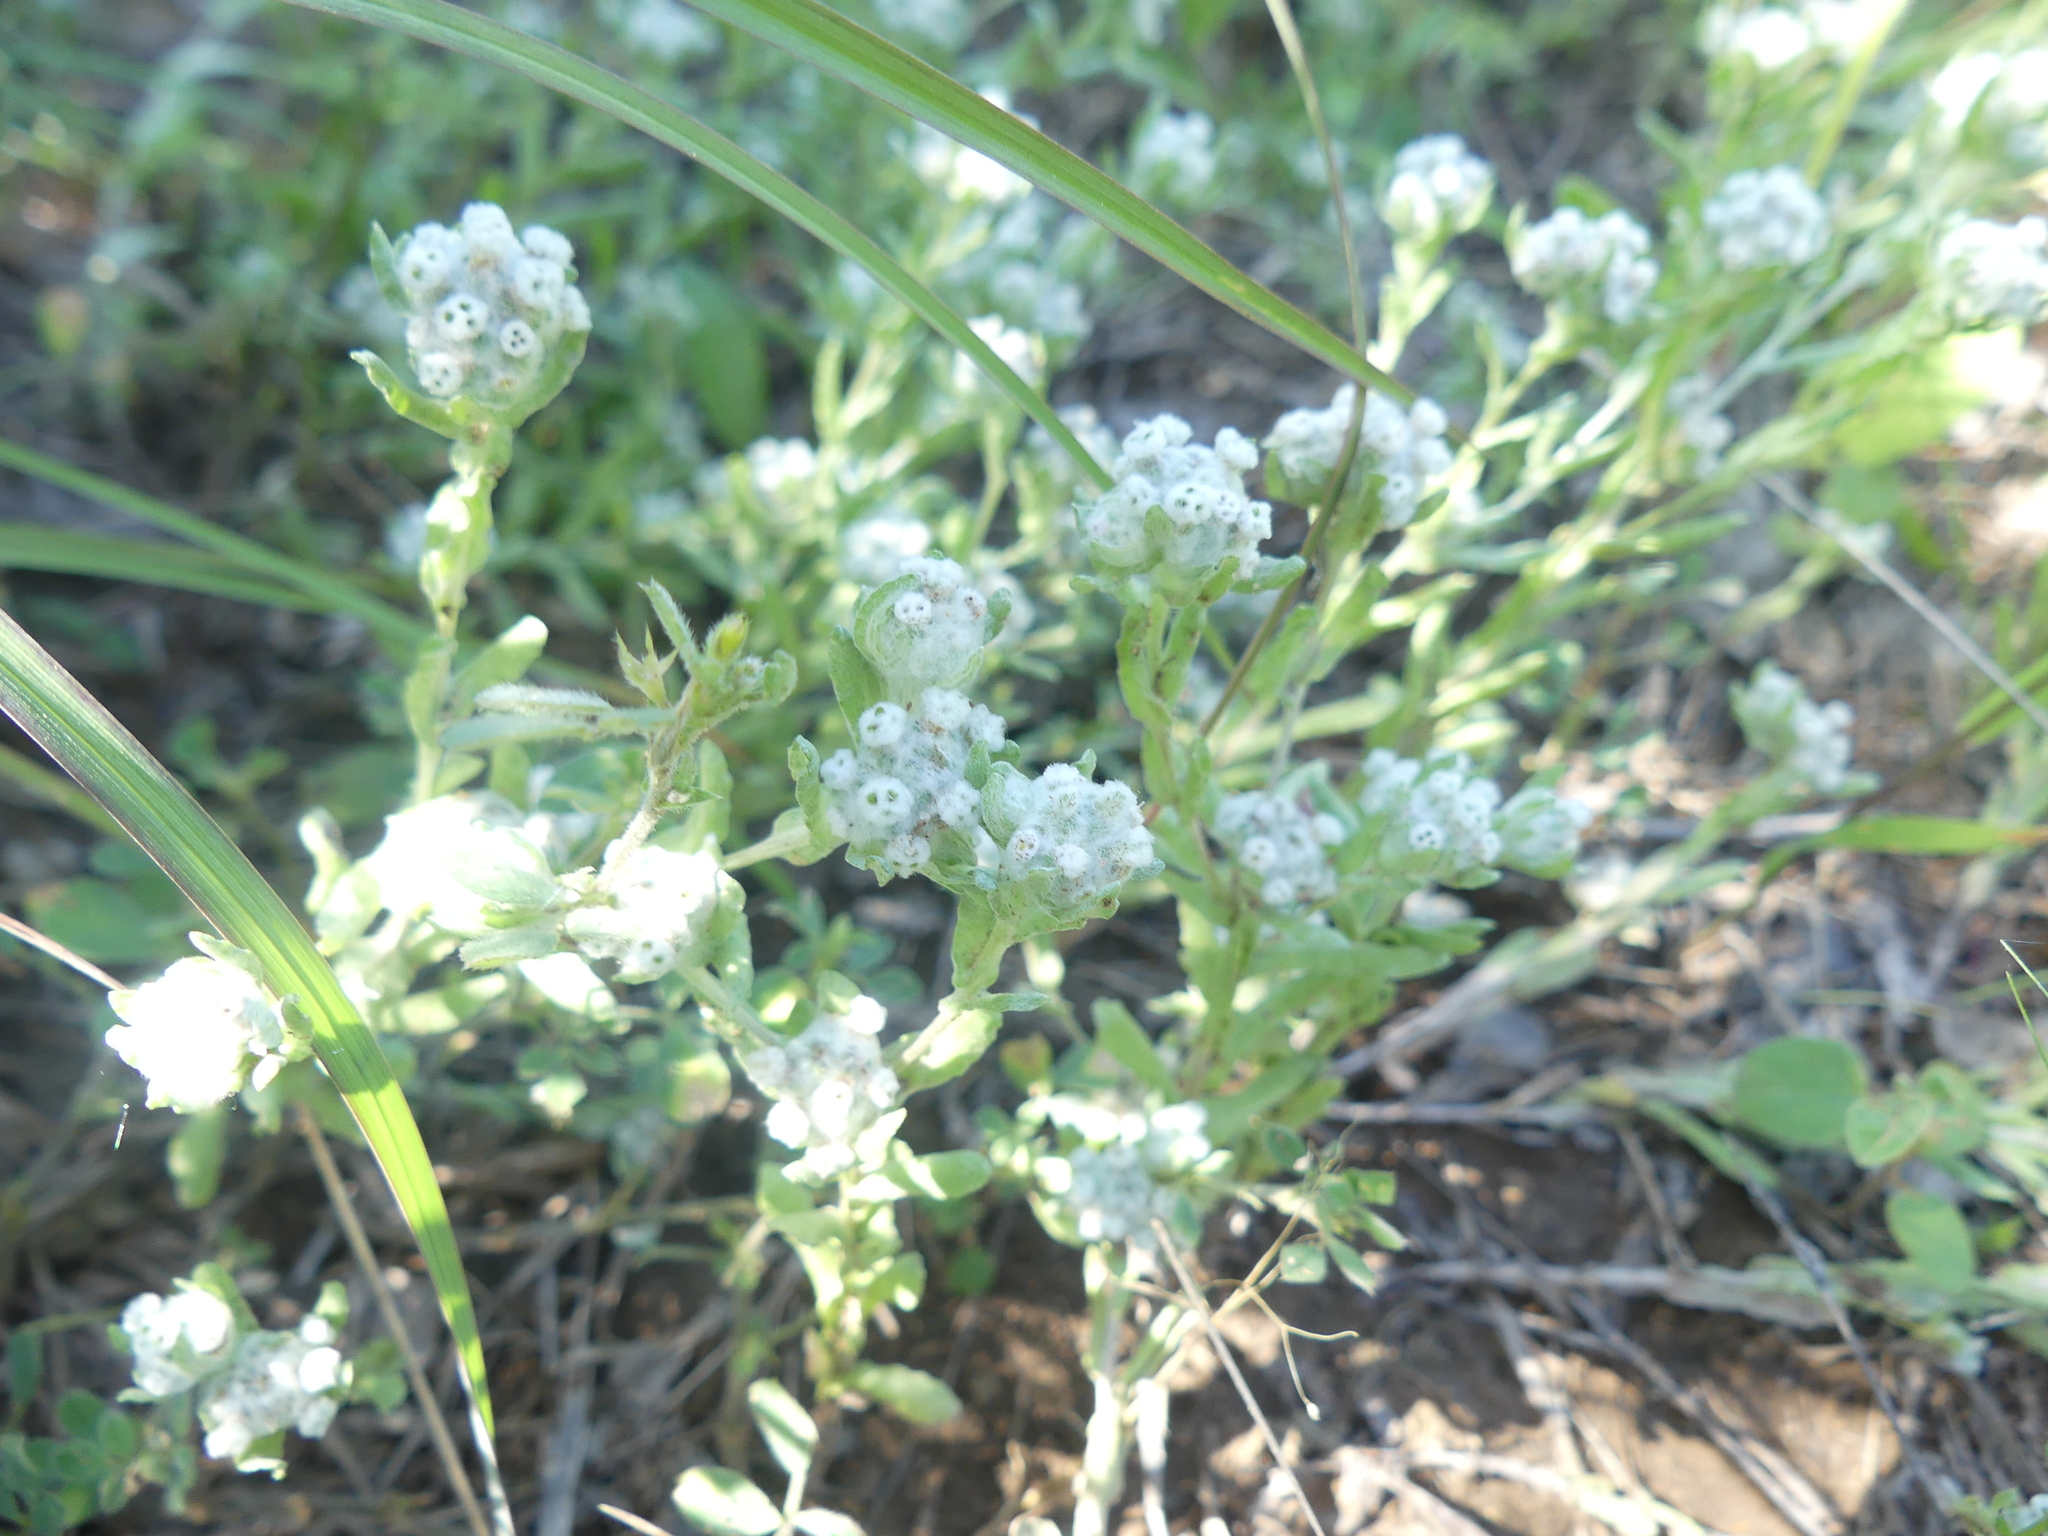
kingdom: Plantae
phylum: Tracheophyta
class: Magnoliopsida
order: Asterales
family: Asteraceae
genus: Diaperia
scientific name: Diaperia verna
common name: Many-stem rabbit-tobacco
